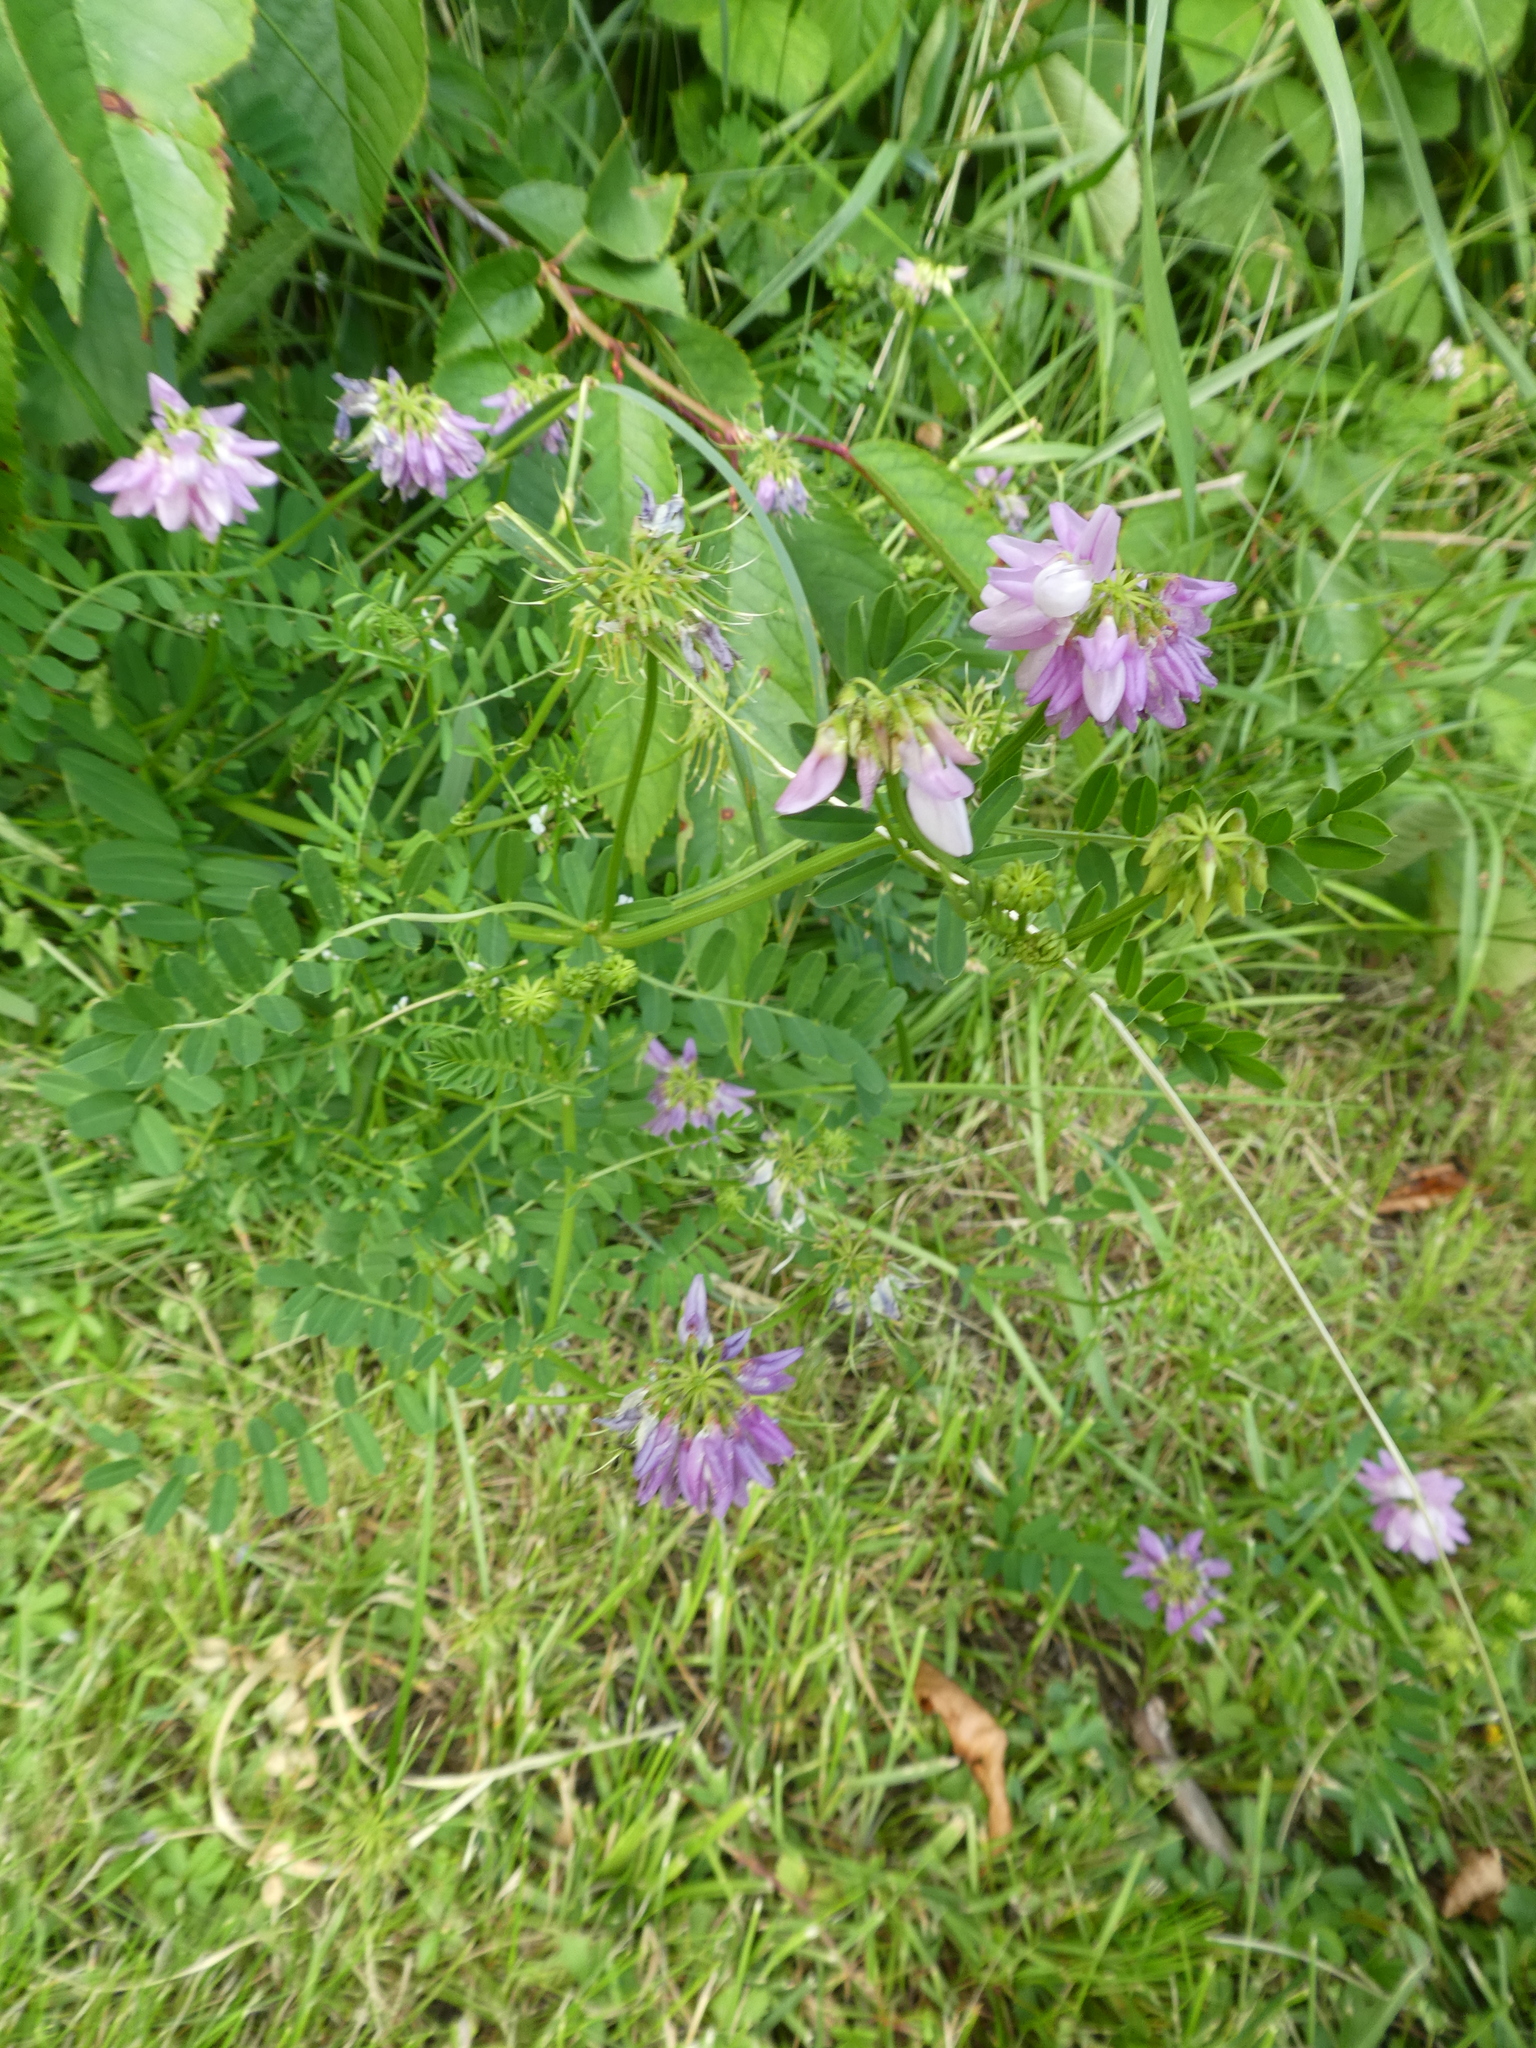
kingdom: Plantae
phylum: Tracheophyta
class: Magnoliopsida
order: Fabales
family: Fabaceae
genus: Coronilla
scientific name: Coronilla varia
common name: Crownvetch
